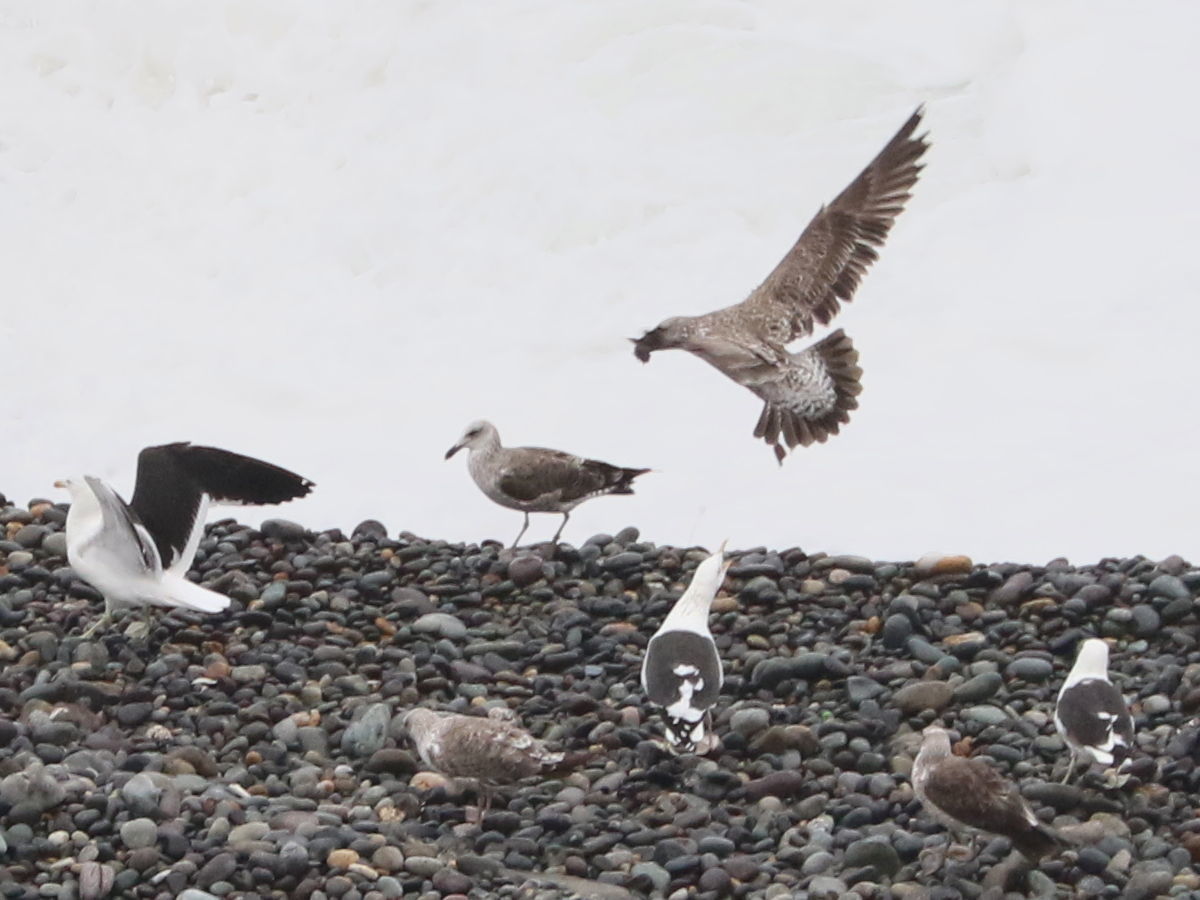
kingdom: Animalia
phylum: Chordata
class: Aves
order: Charadriiformes
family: Laridae
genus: Larus
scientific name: Larus dominicanus
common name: Kelp gull
